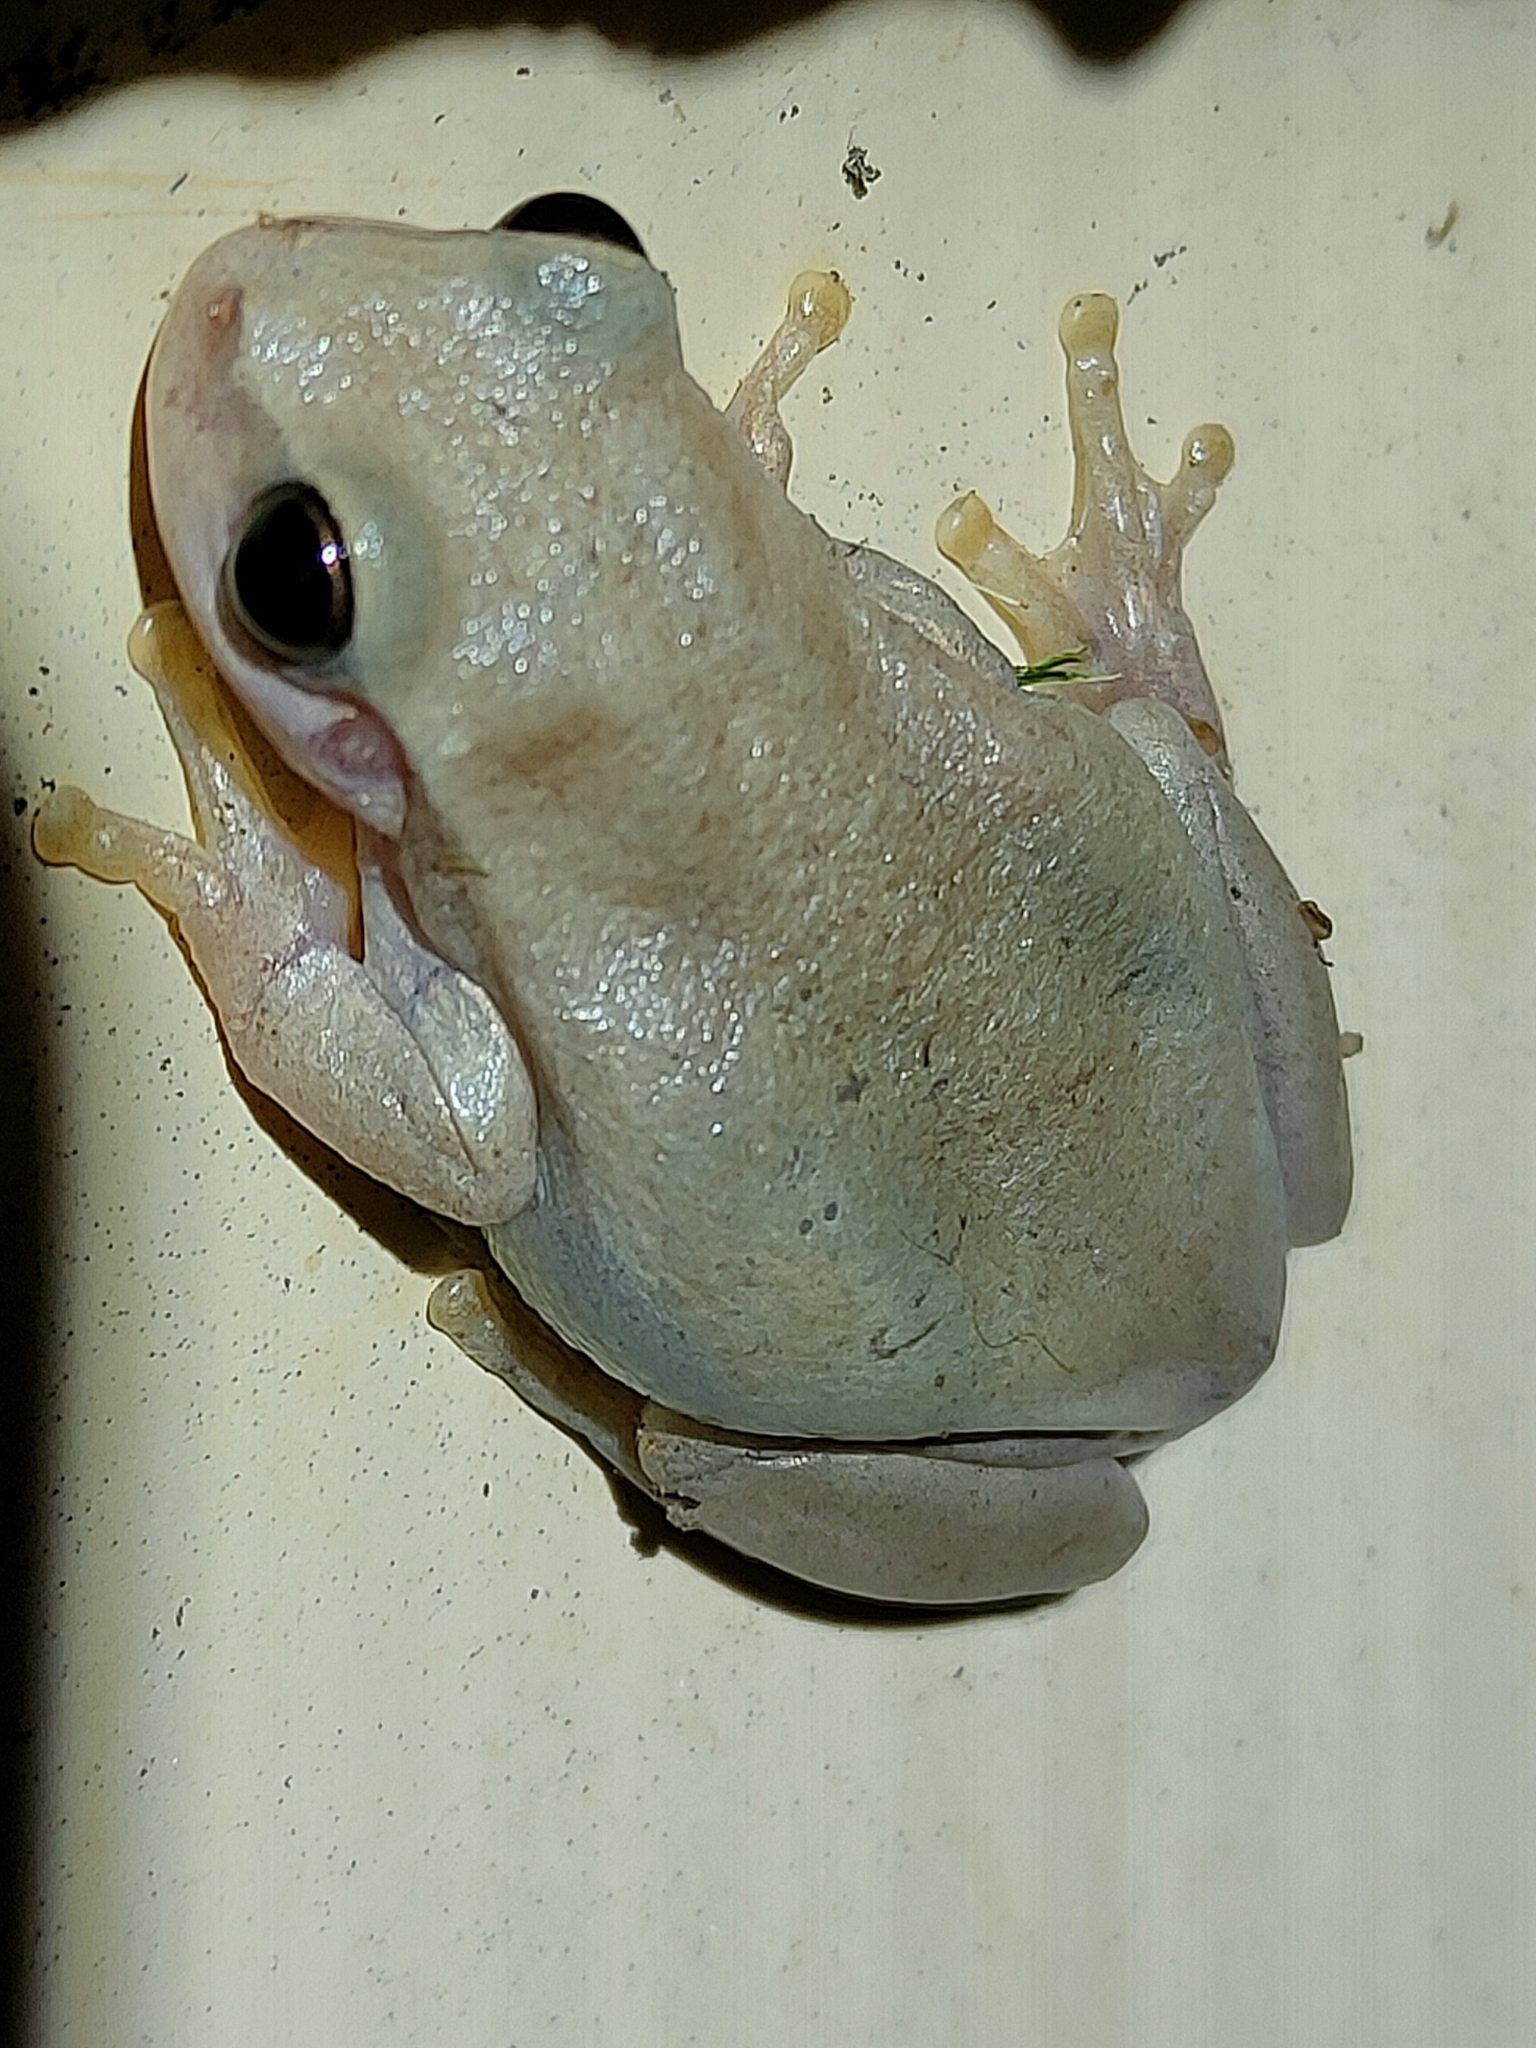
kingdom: Animalia
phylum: Chordata
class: Amphibia
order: Anura
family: Pelodryadidae
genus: Litoria
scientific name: Litoria rubella
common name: Desert tree frog
